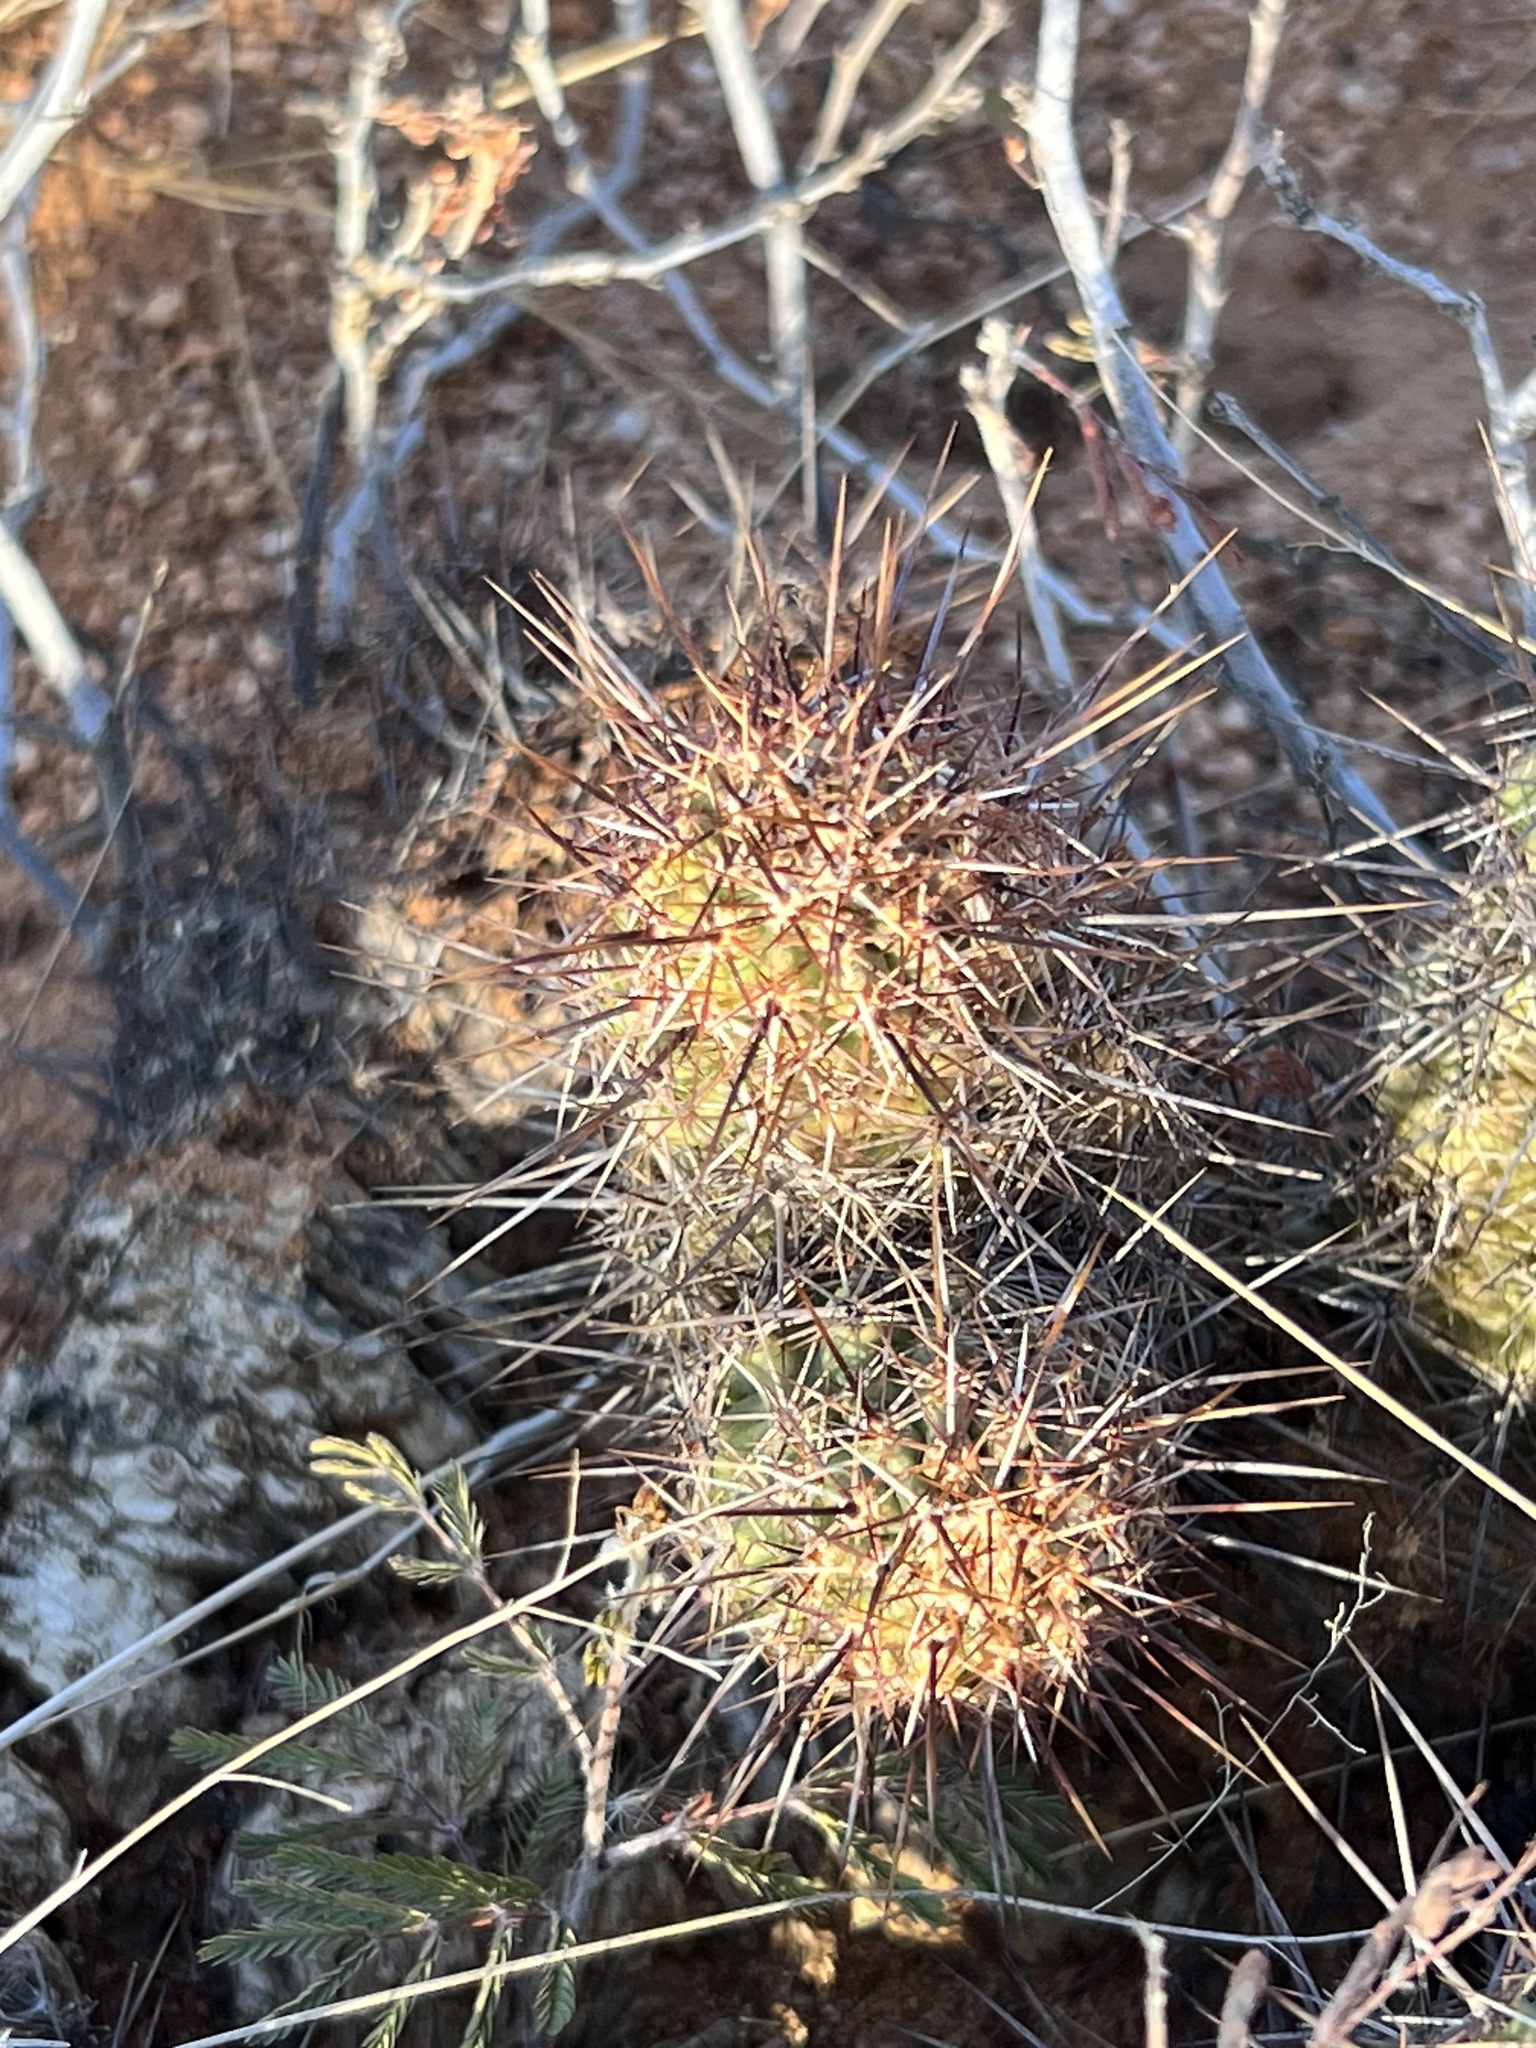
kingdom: Plantae
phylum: Tracheophyta
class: Magnoliopsida
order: Caryophyllales
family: Cactaceae
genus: Echinocereus
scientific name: Echinocereus fendleri
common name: Fendler's hedgehog cactus
